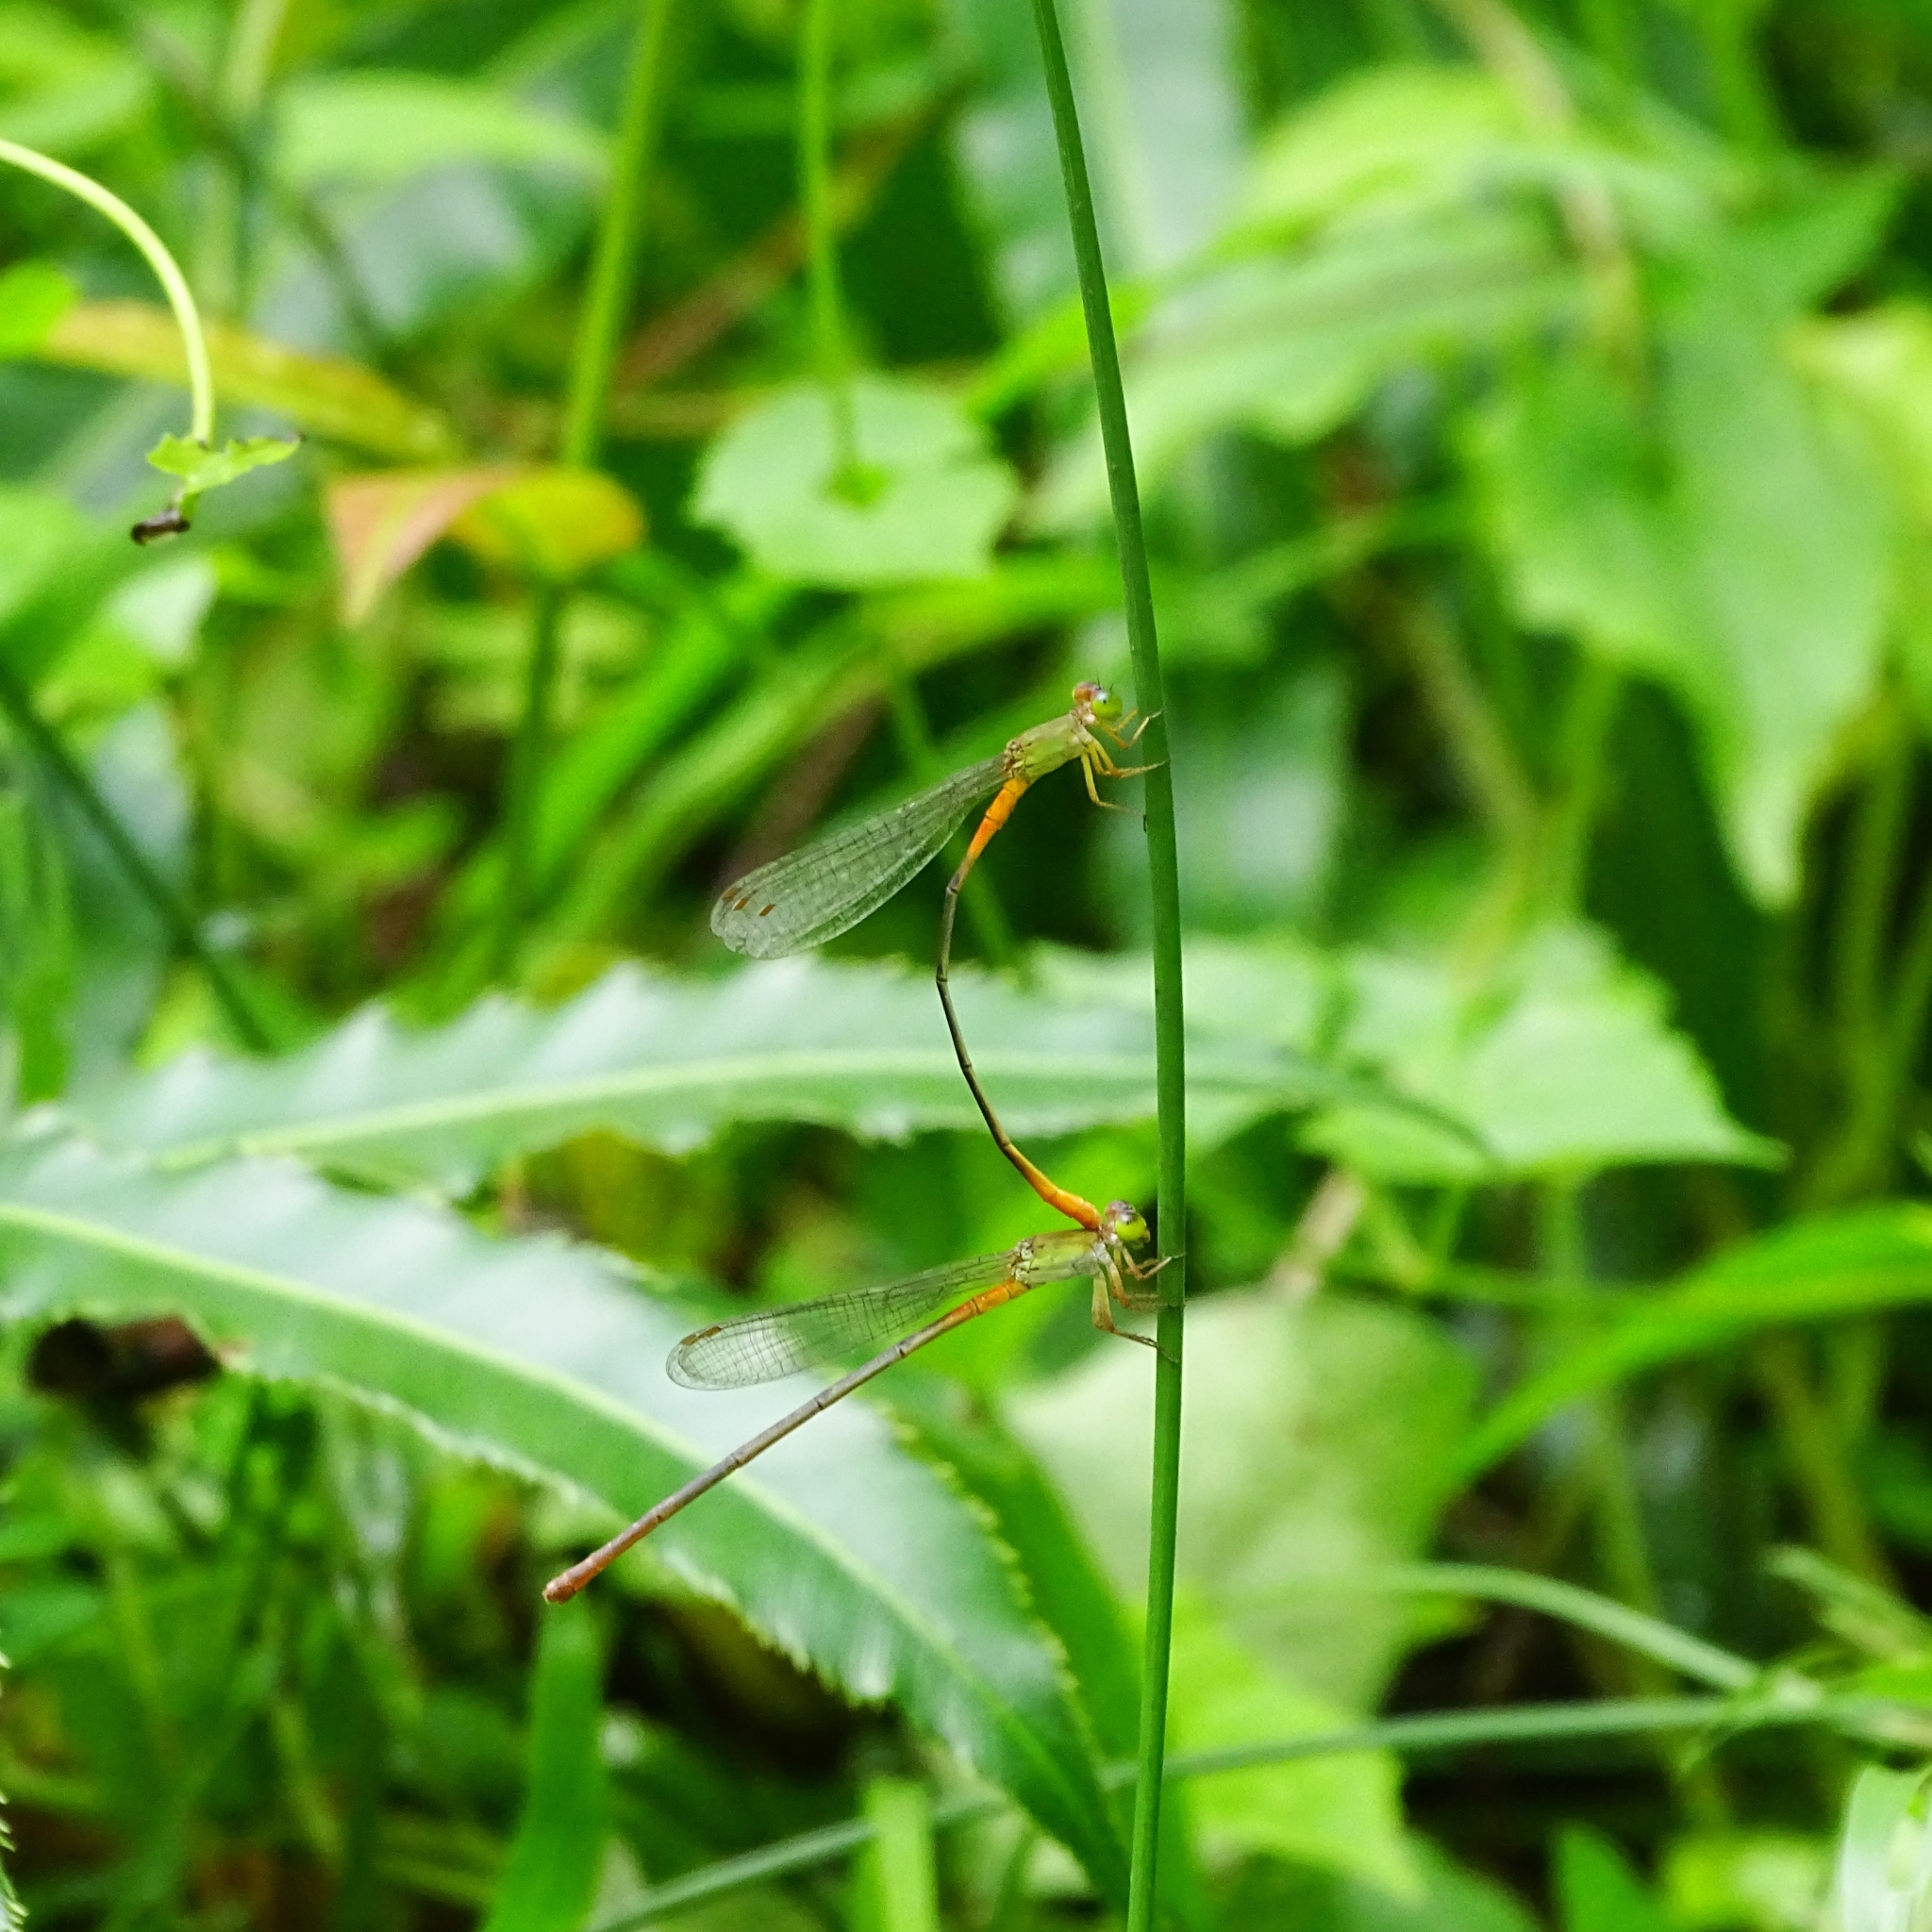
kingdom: Animalia
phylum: Arthropoda
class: Insecta
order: Odonata
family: Coenagrionidae
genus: Ceriagrion
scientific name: Ceriagrion cerinorubellum
